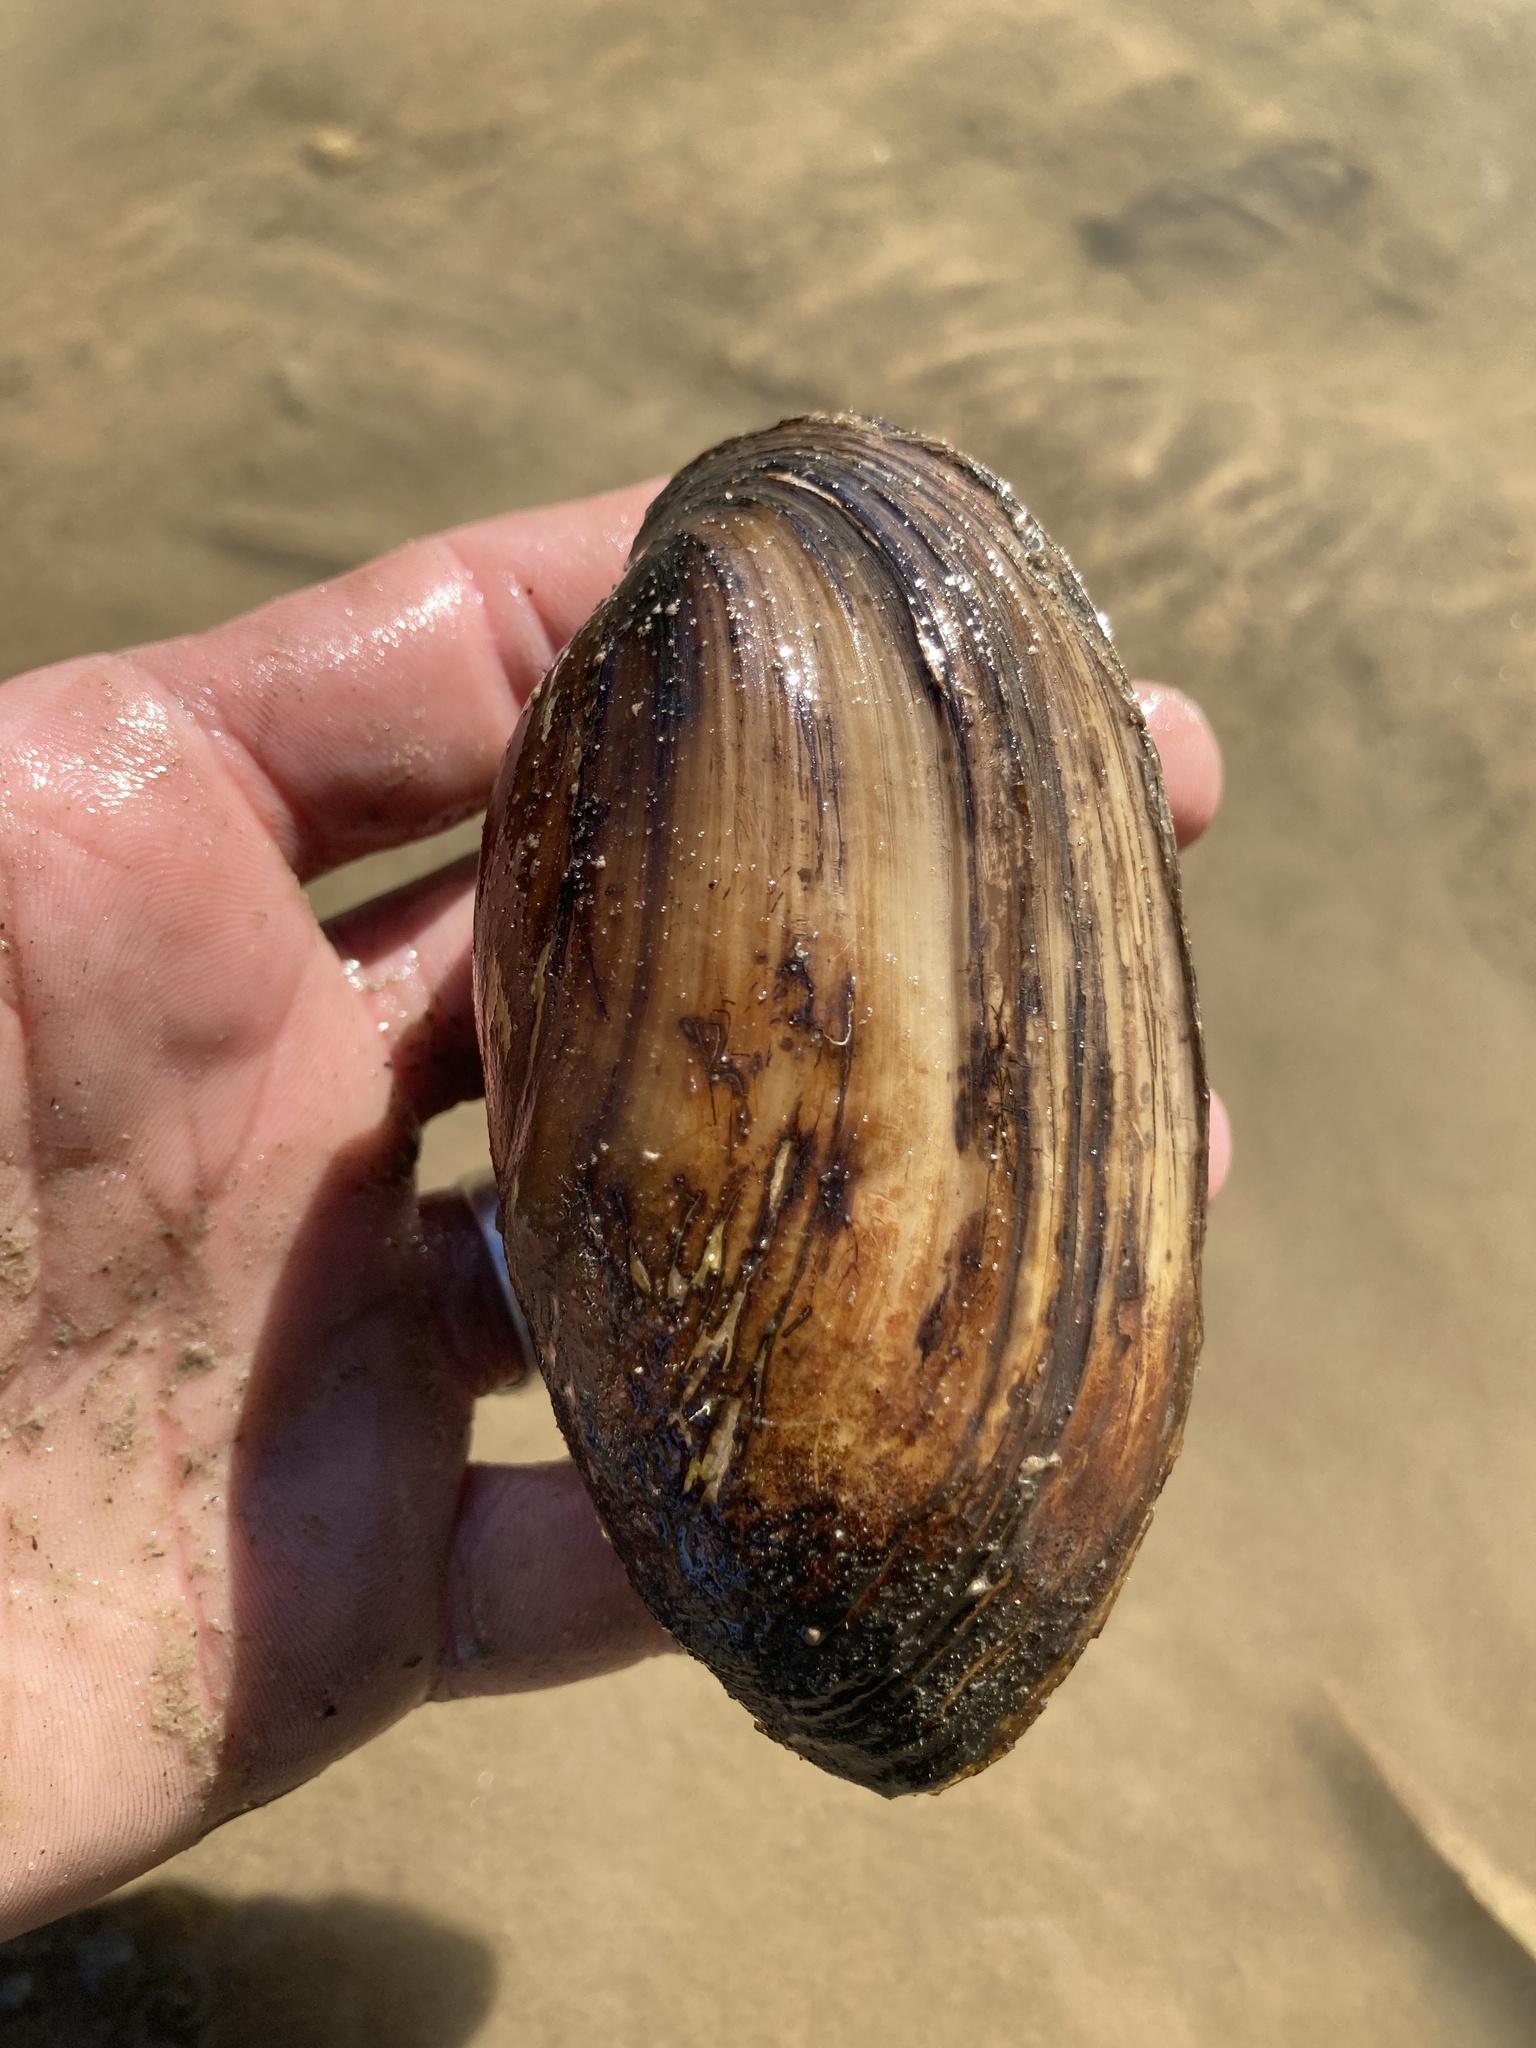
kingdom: Animalia
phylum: Mollusca
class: Bivalvia
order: Unionida
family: Unionidae
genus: Lampsilis
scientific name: Lampsilis teres
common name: Yellow sandshell
